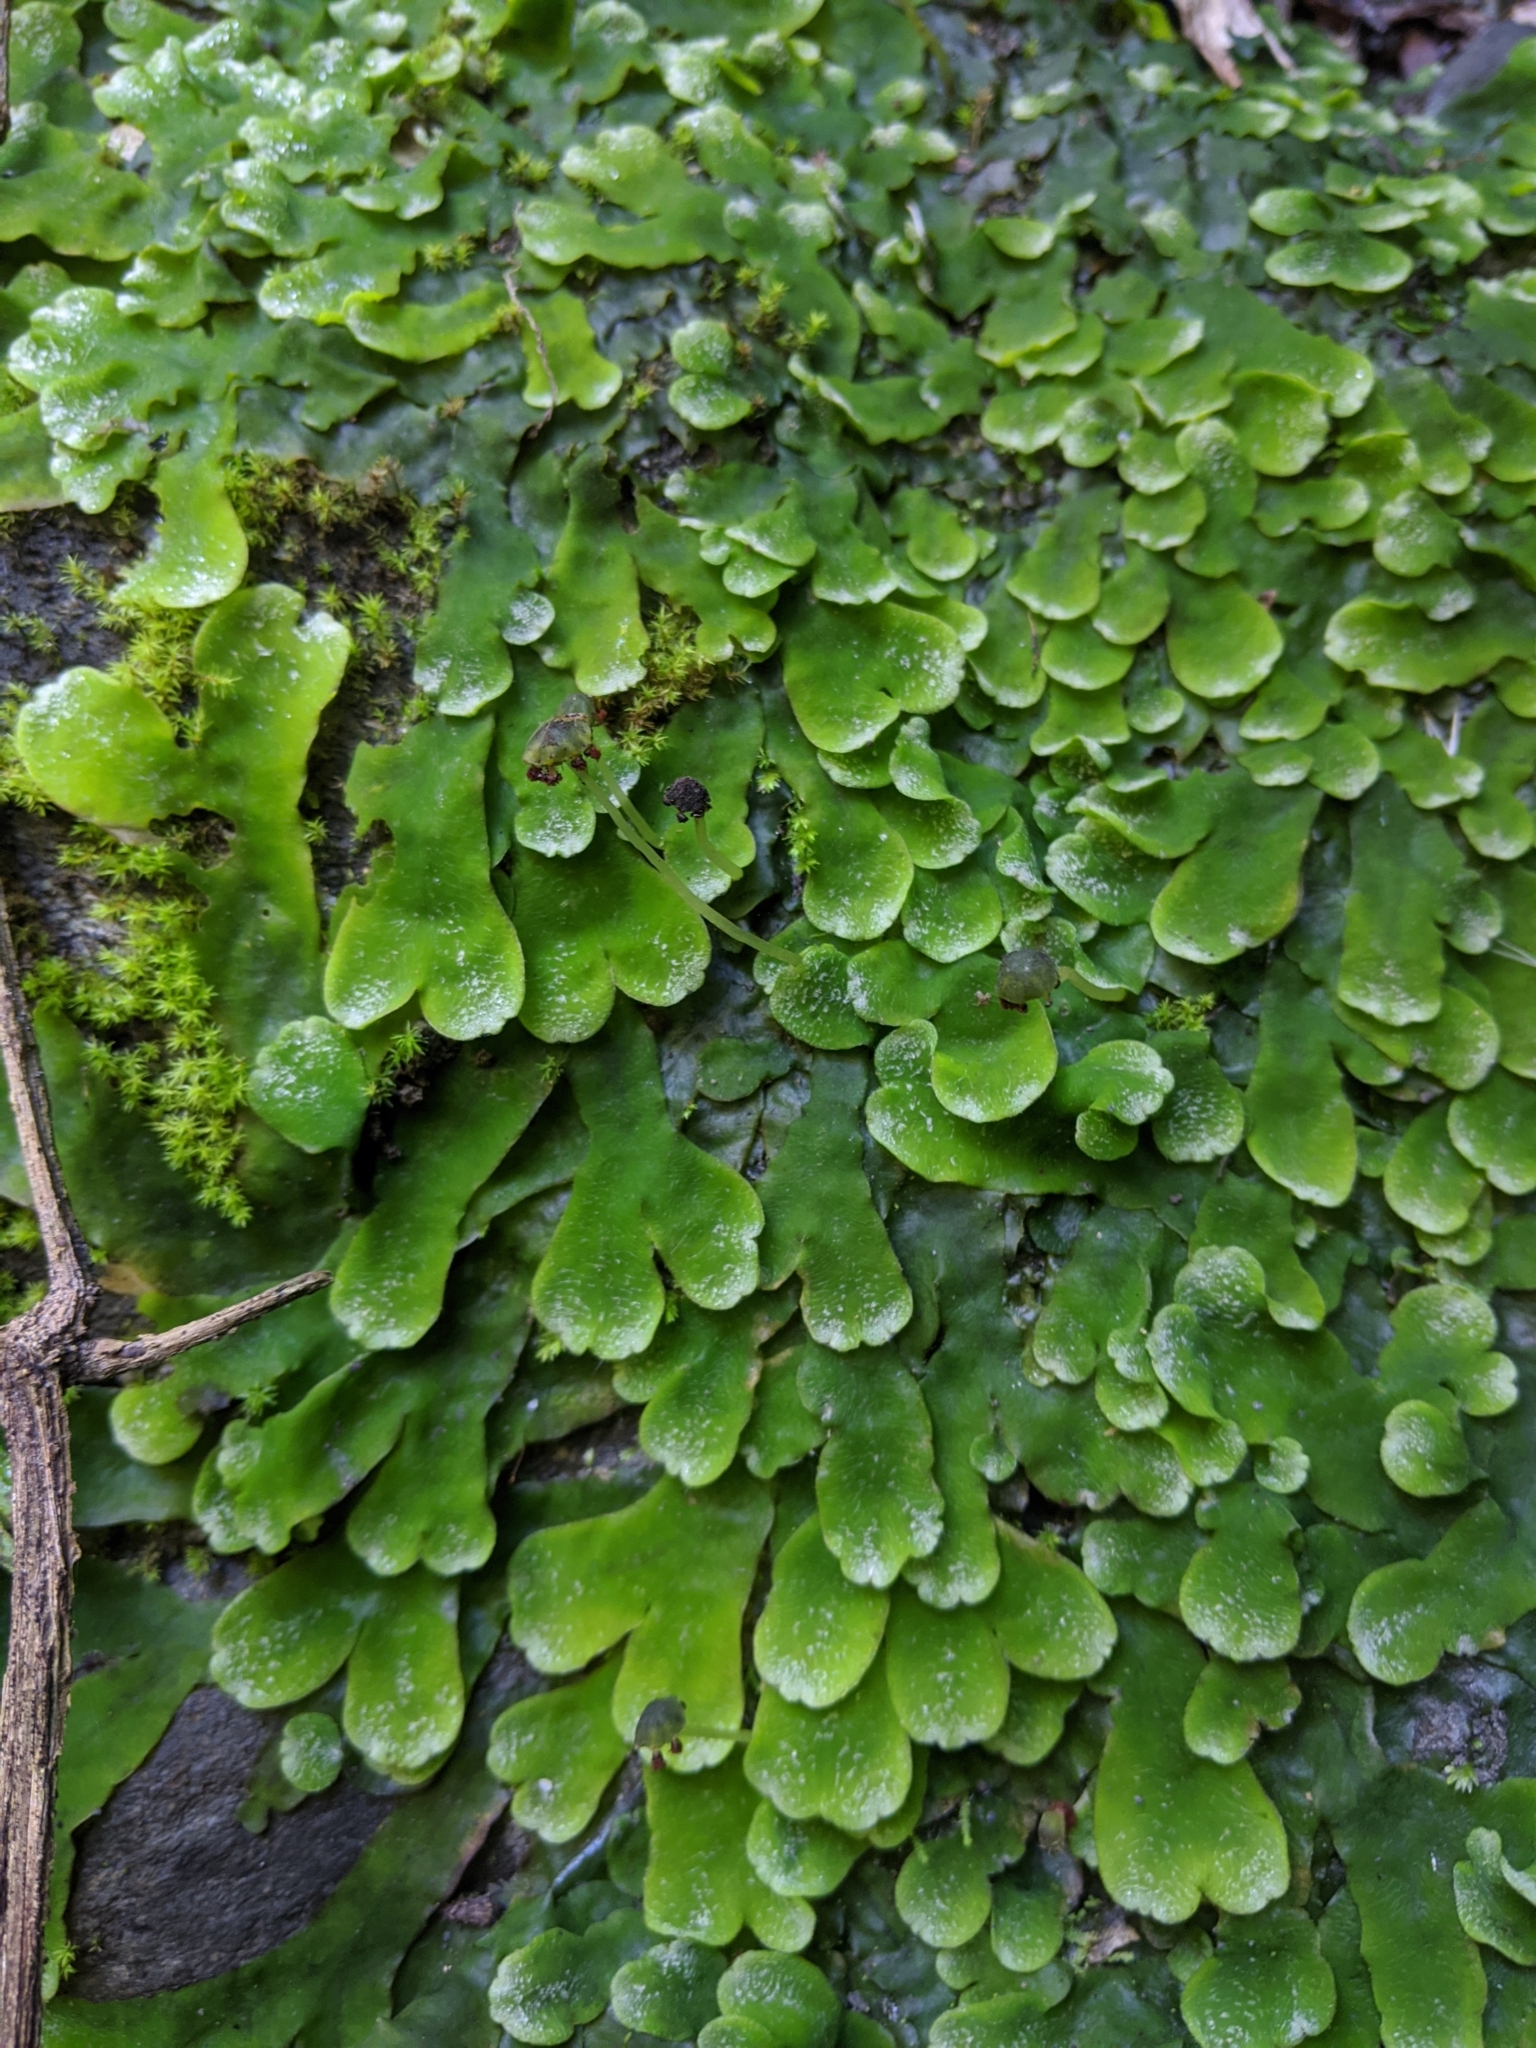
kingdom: Plantae
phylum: Marchantiophyta
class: Marchantiopsida
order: Marchantiales
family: Dumortieraceae
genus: Dumortiera
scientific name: Dumortiera hirsuta
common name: Dumortier's liverwort
